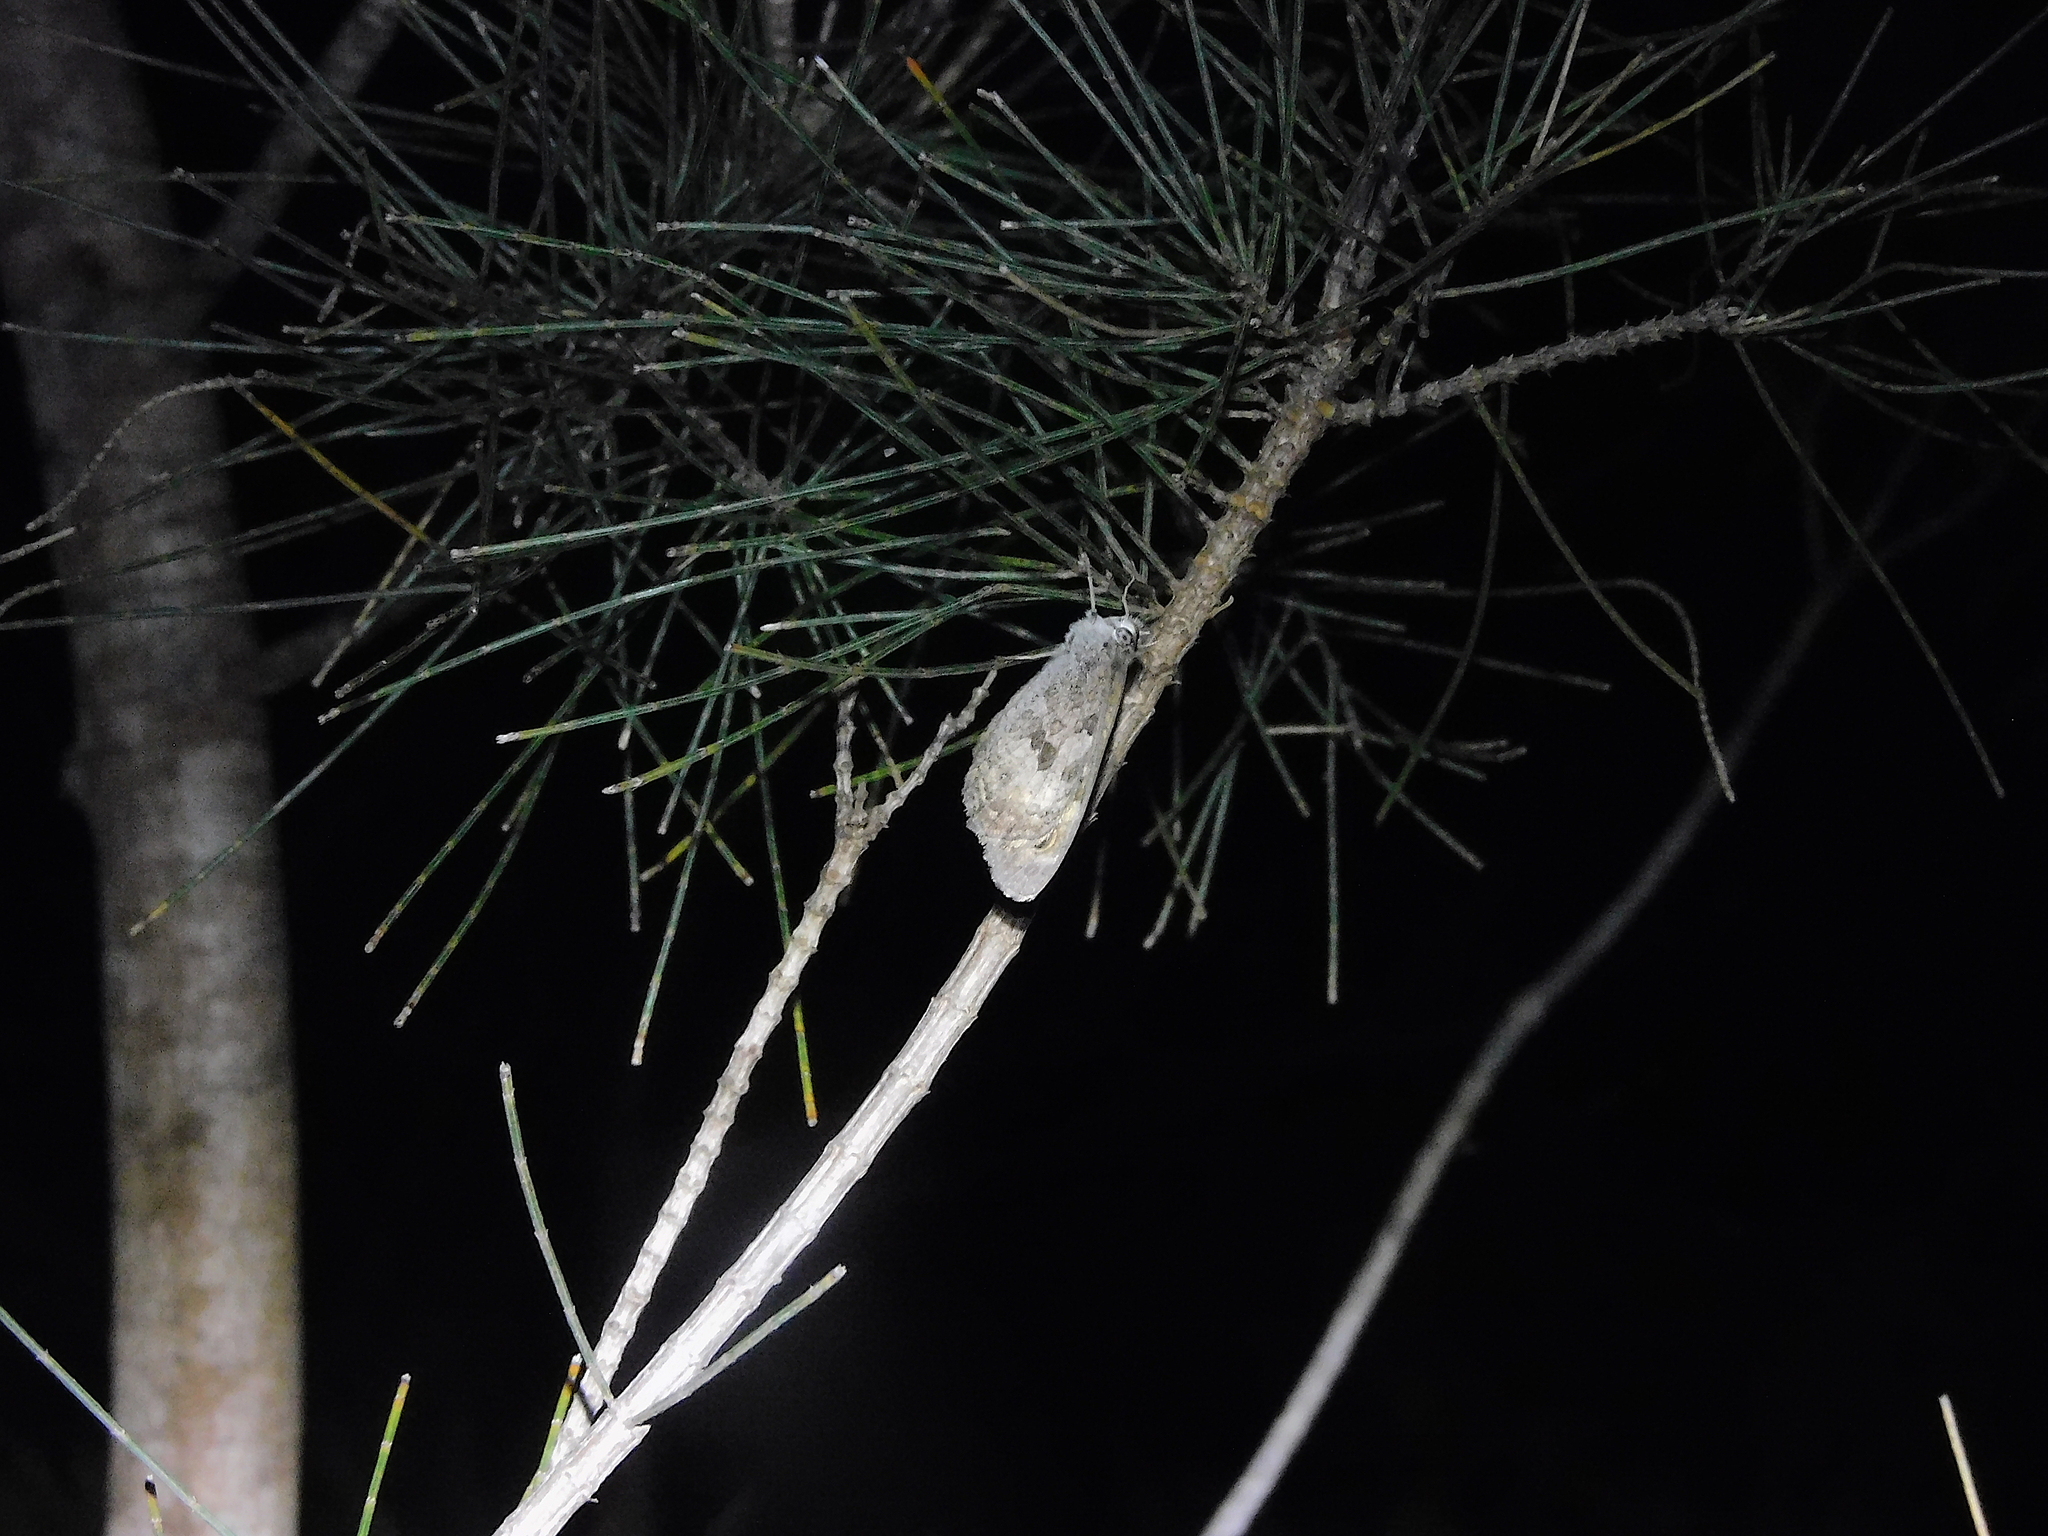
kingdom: Animalia
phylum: Arthropoda
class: Insecta
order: Lepidoptera
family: Nymphalidae
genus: Geitoneura
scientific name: Geitoneura klugii
